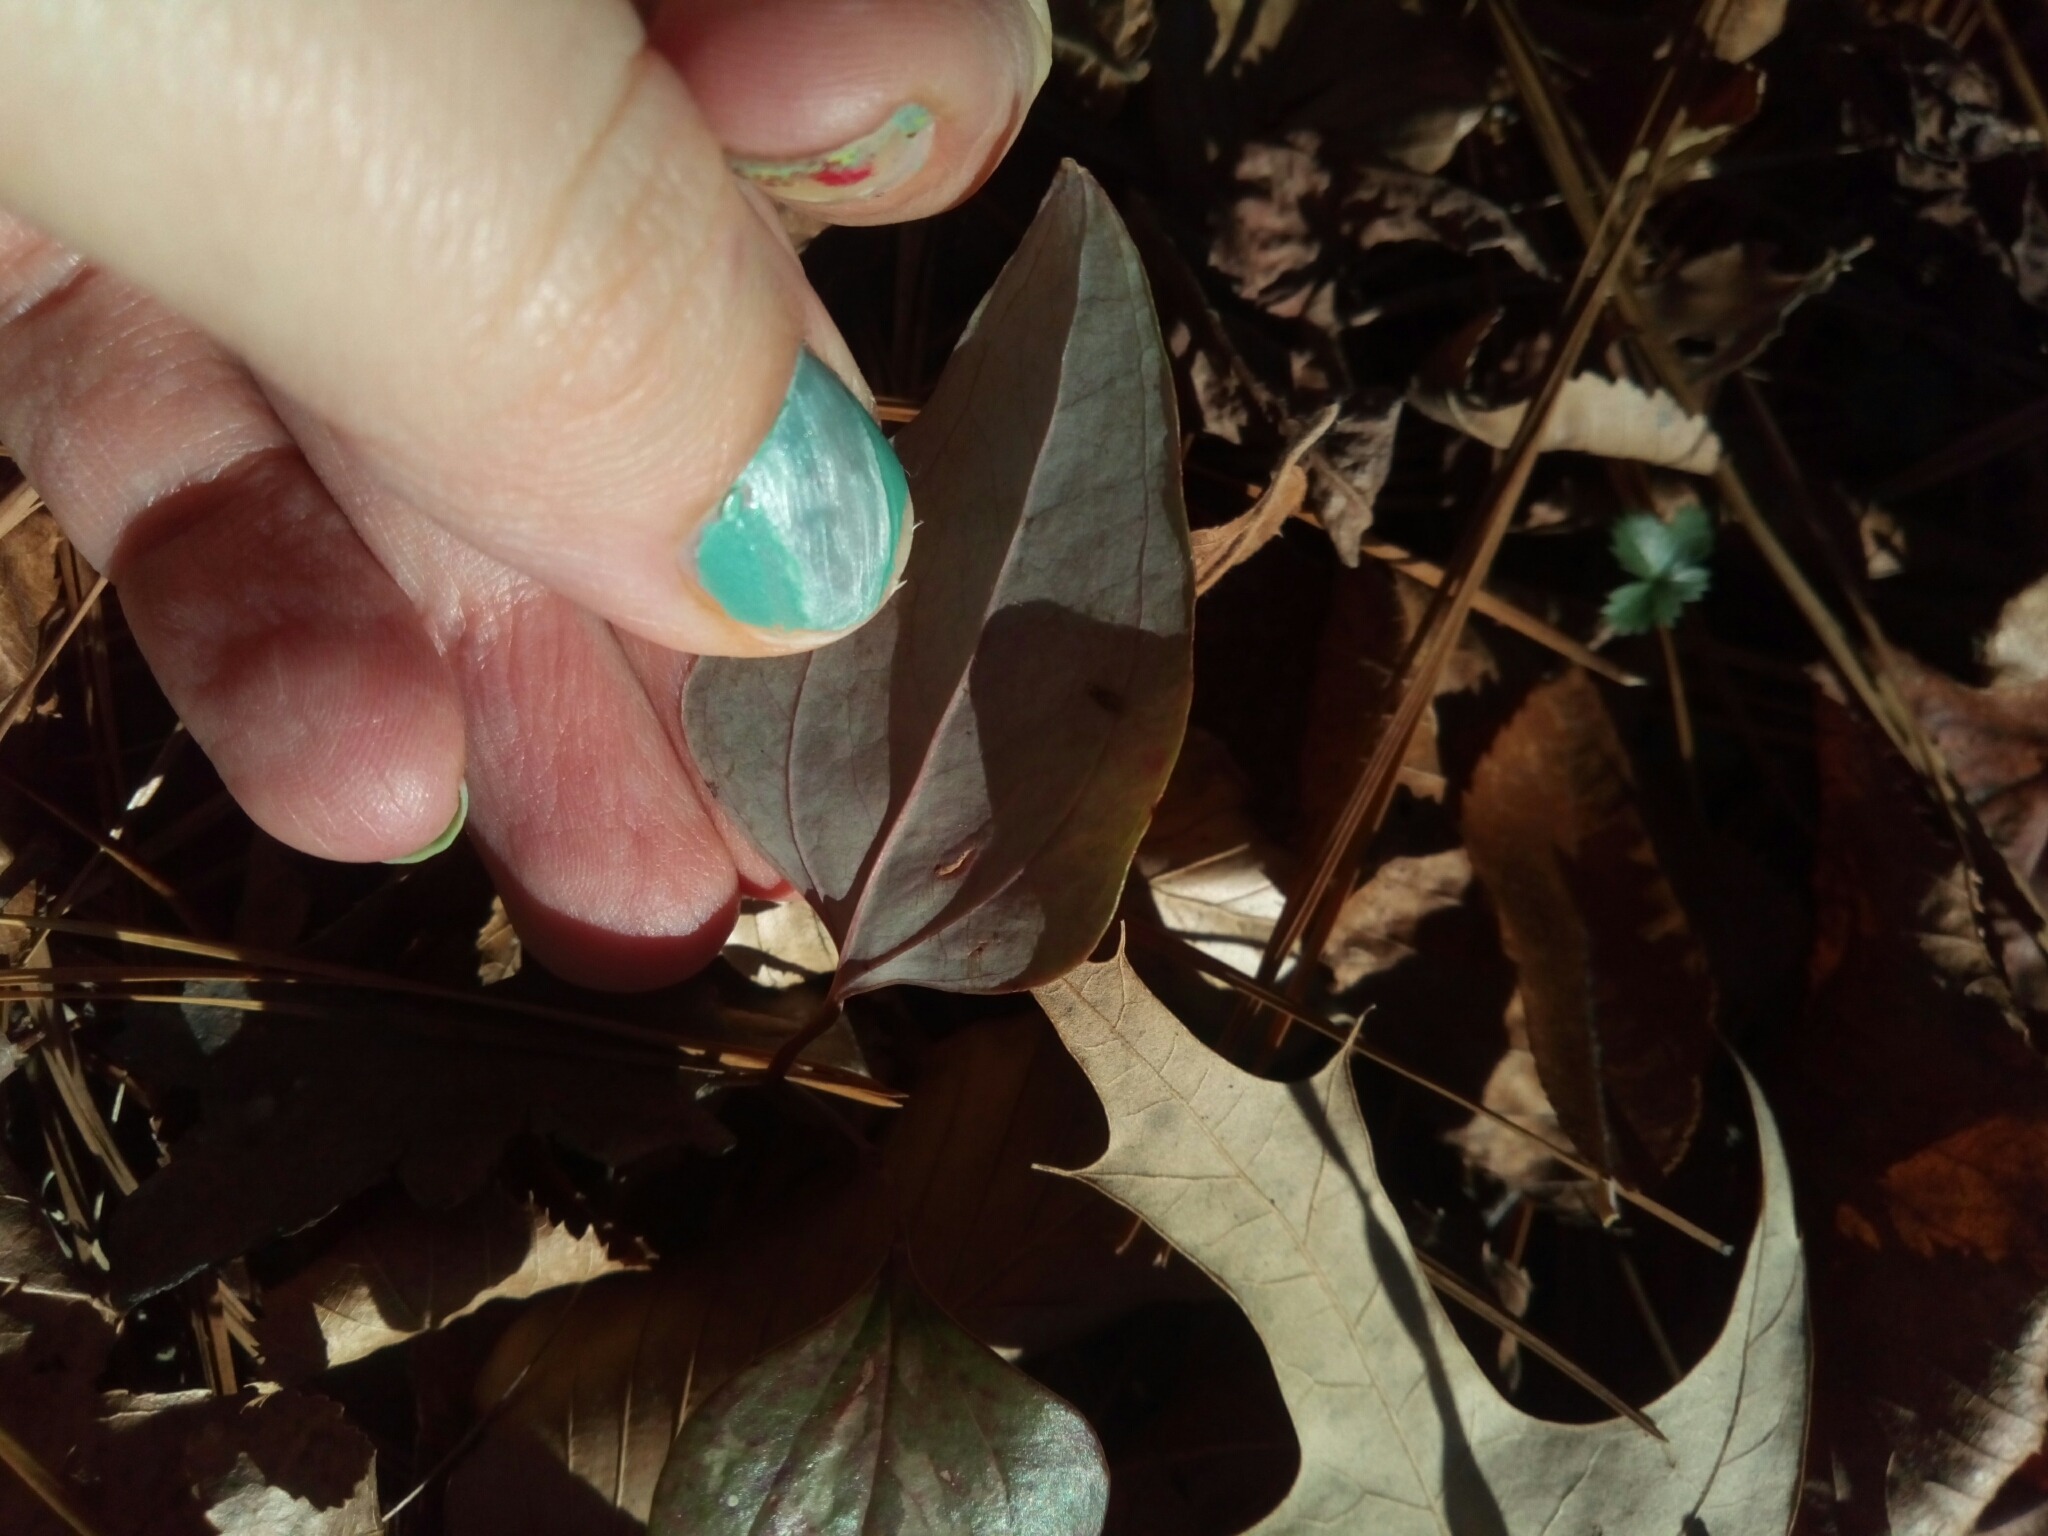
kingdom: Plantae
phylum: Tracheophyta
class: Liliopsida
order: Liliales
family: Smilacaceae
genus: Smilax
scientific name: Smilax glauca
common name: Cat greenbrier
